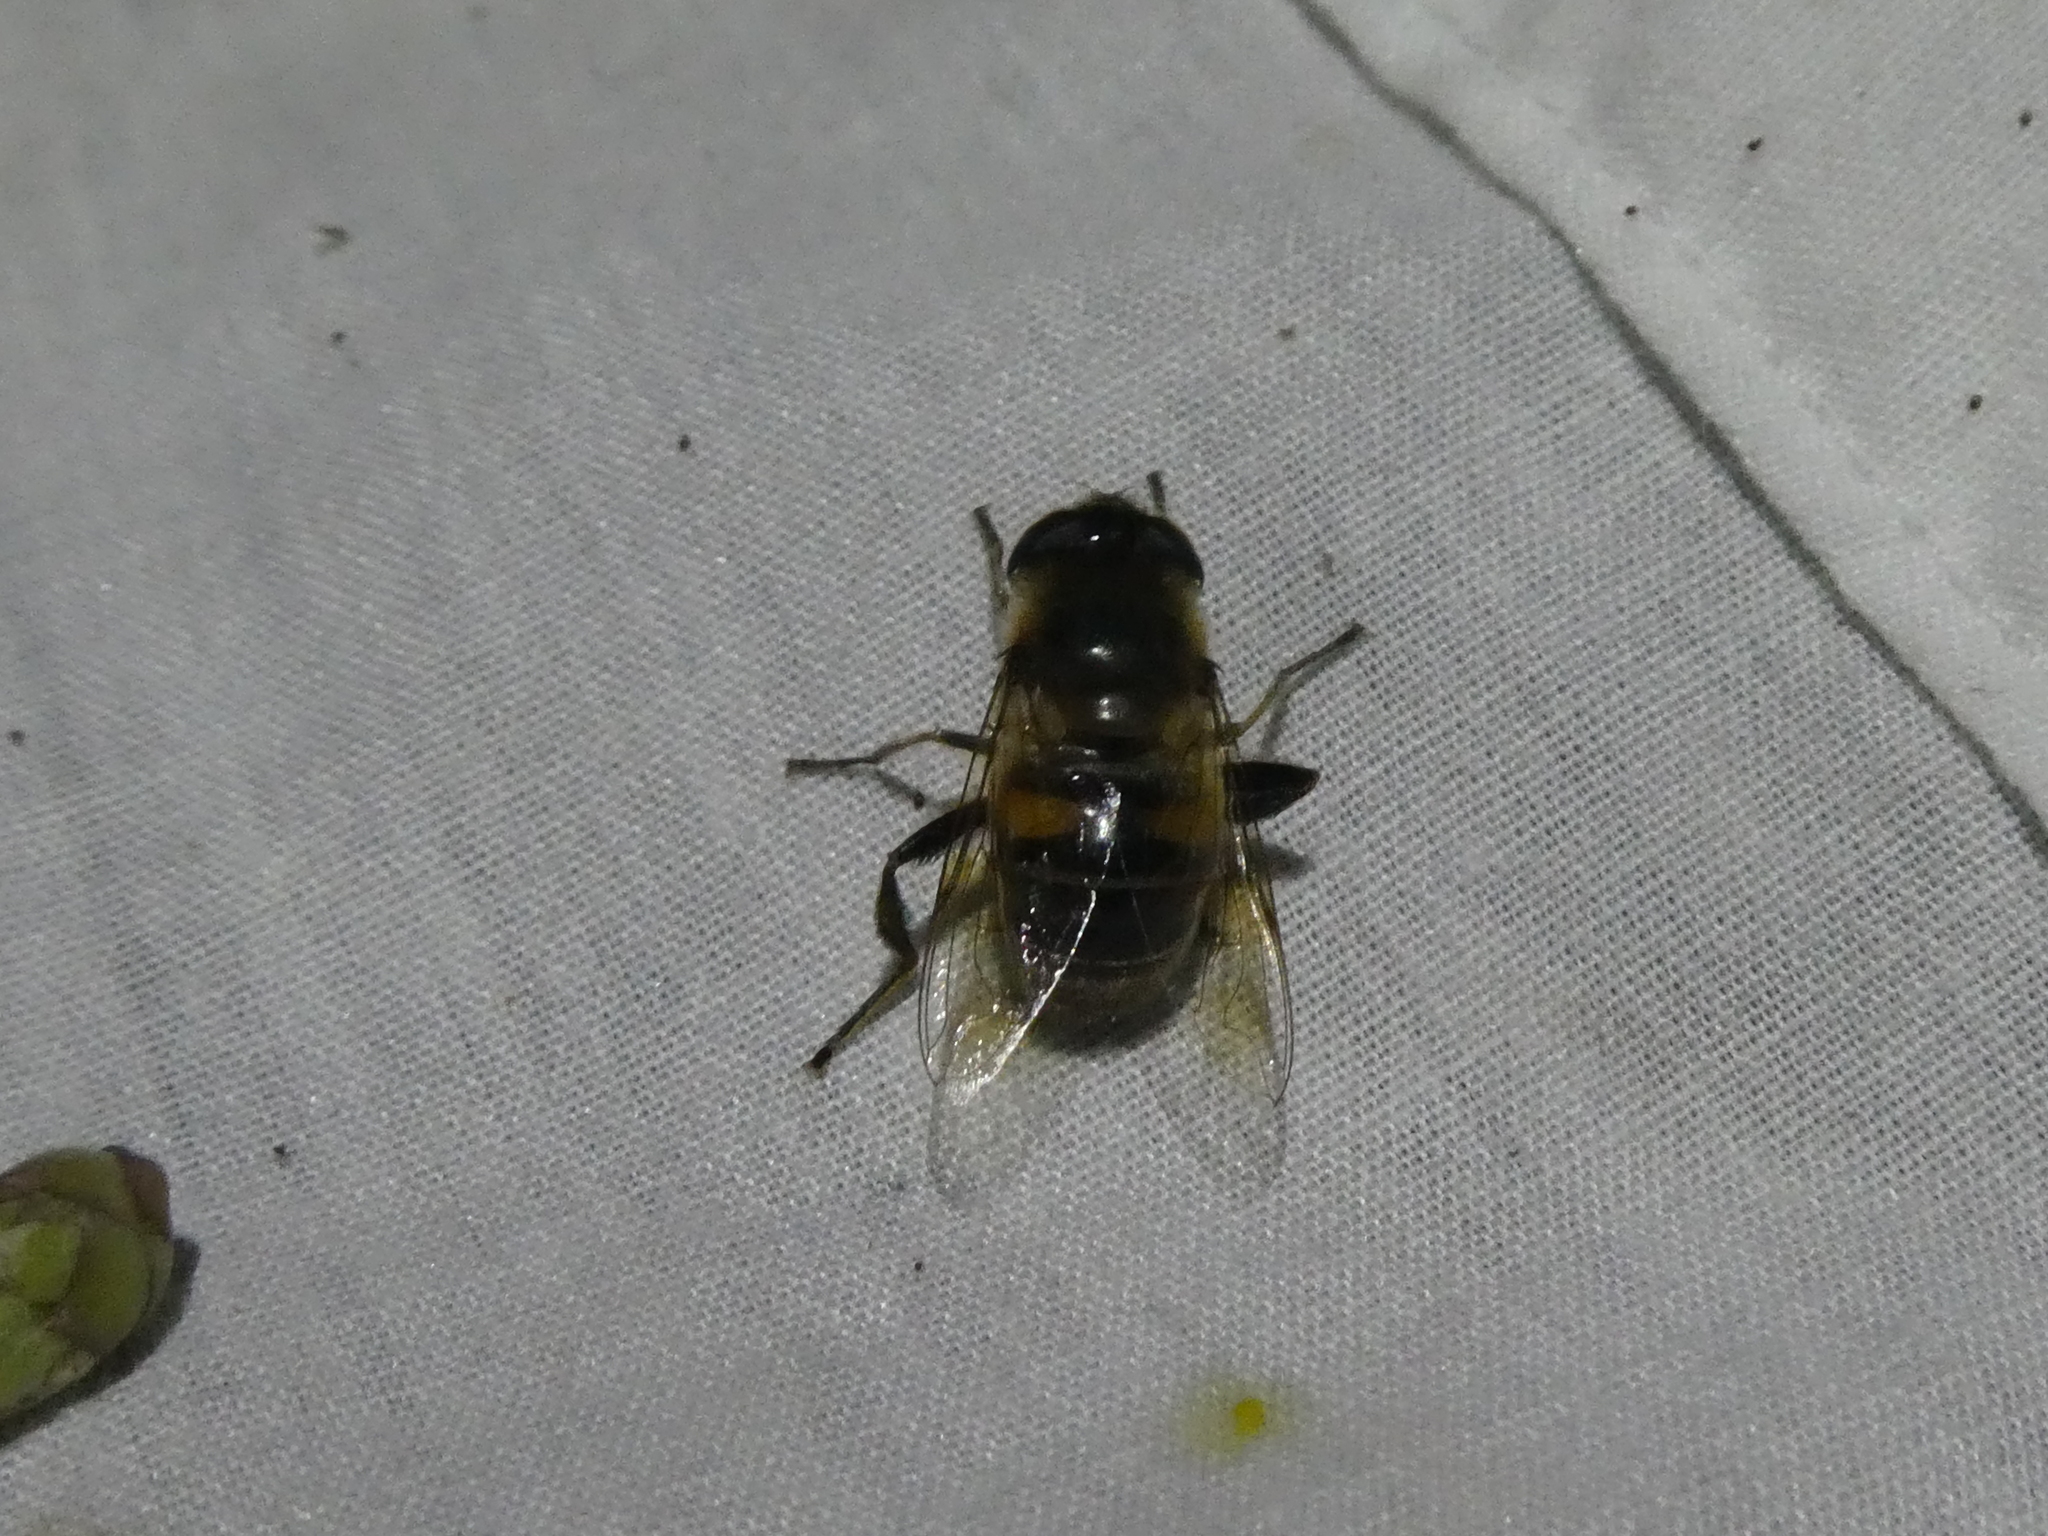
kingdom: Animalia
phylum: Arthropoda
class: Insecta
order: Diptera
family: Syrphidae
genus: Eristalis
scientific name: Eristalis tenax
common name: Drone fly
